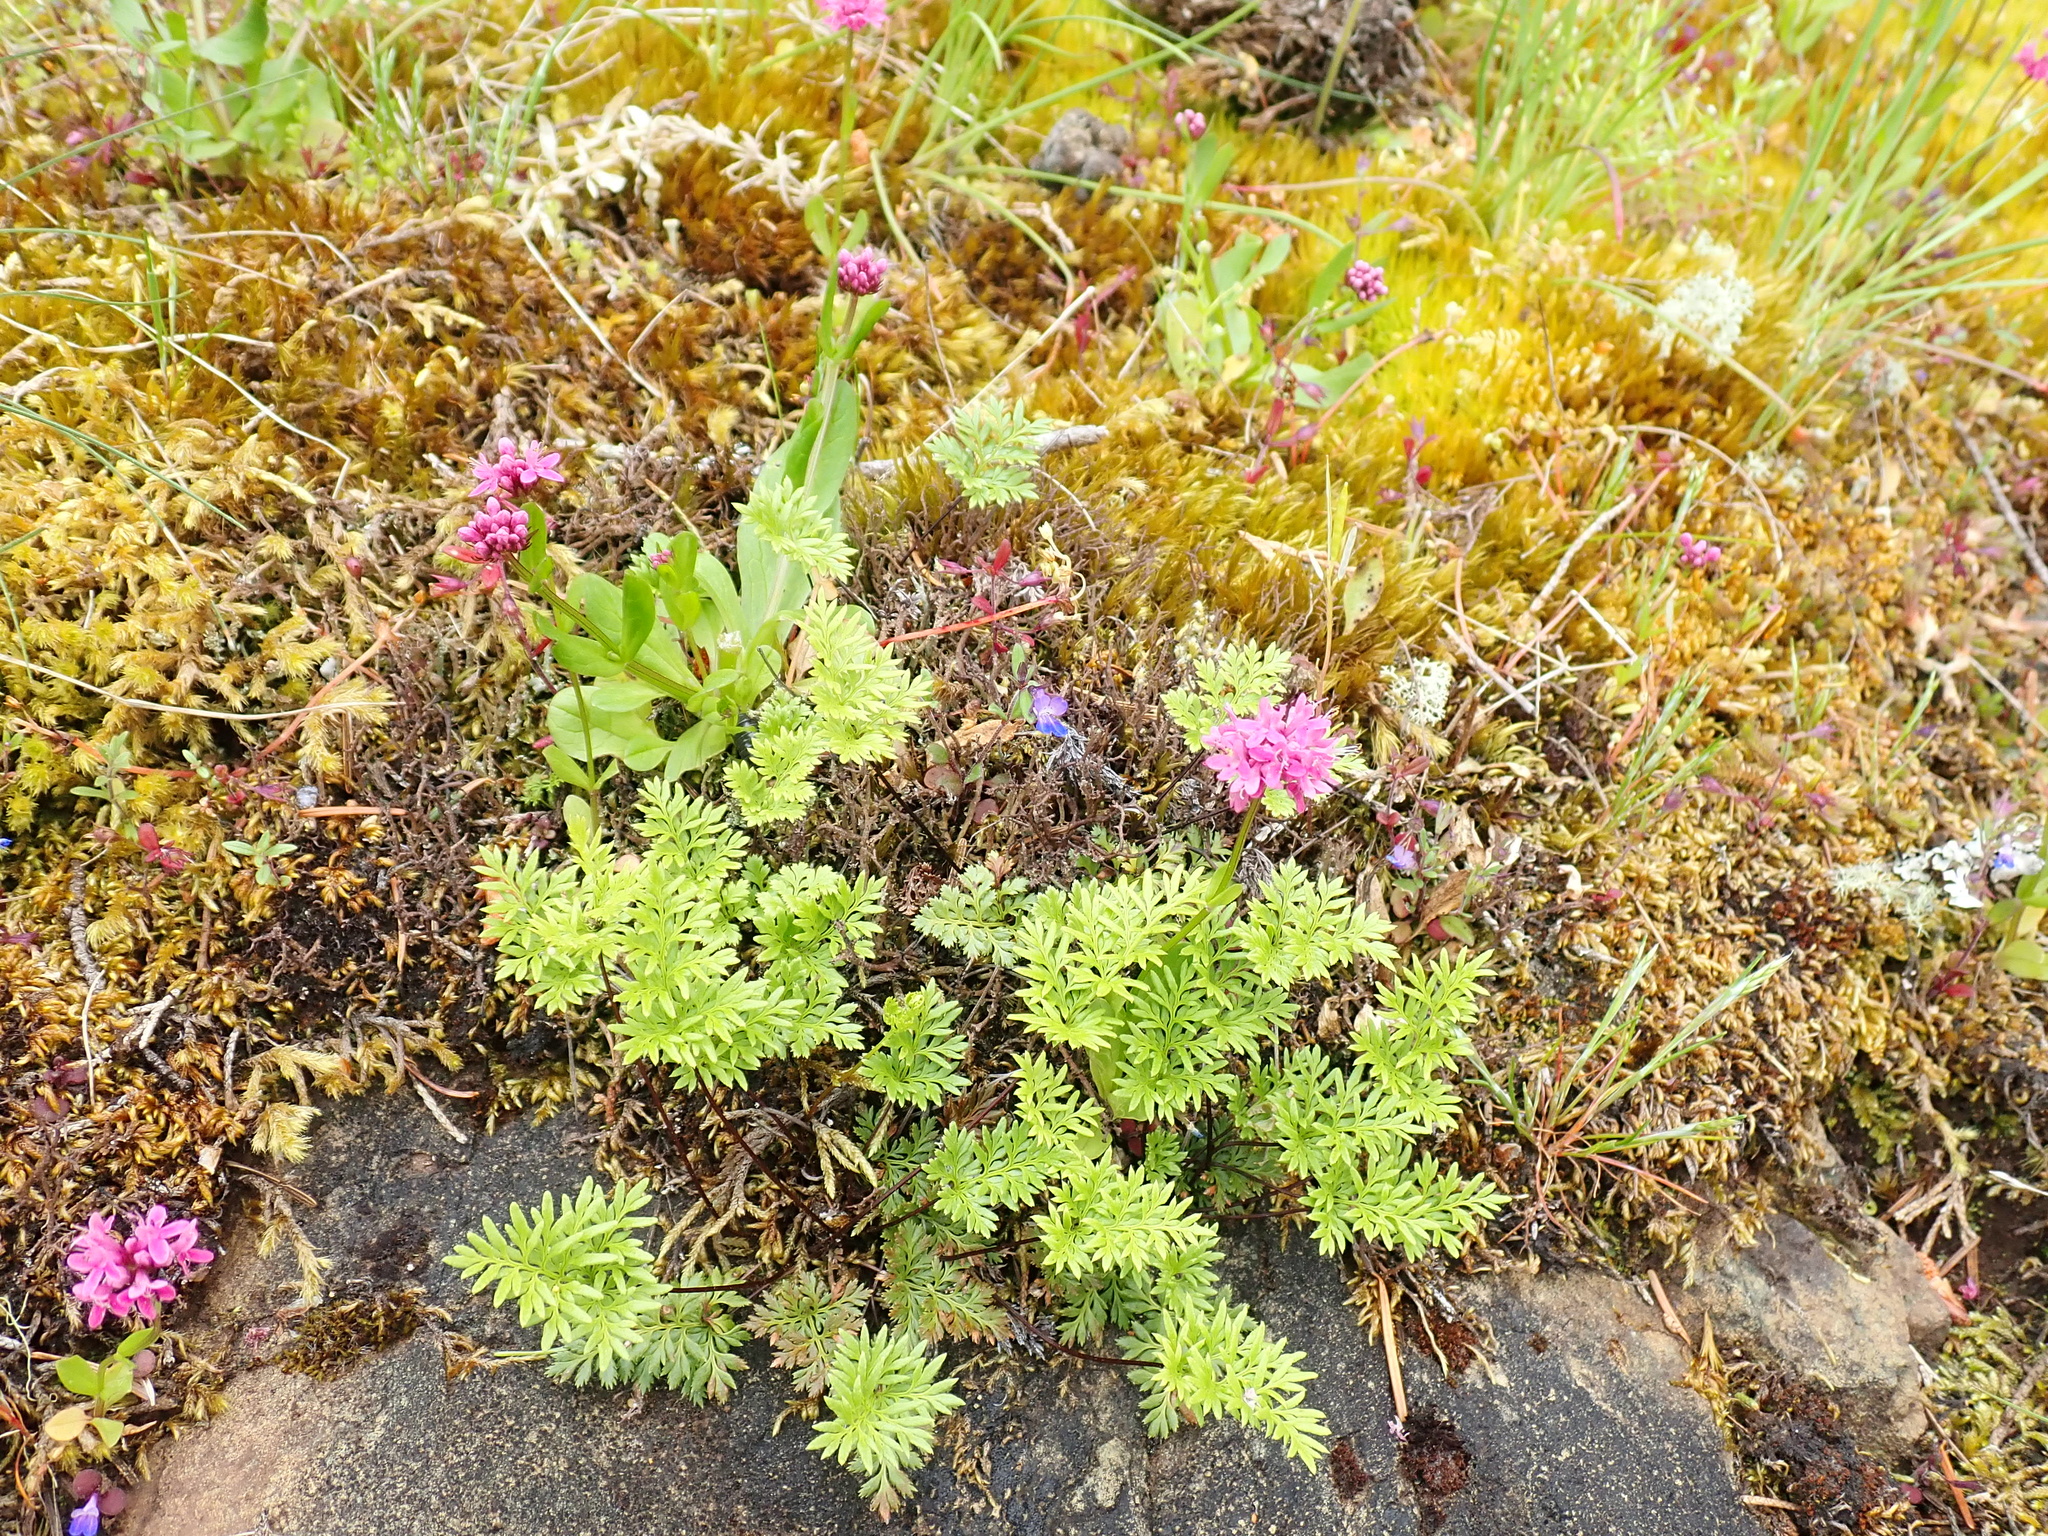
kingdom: Plantae
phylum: Tracheophyta
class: Polypodiopsida
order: Polypodiales
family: Pteridaceae
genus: Aspidotis
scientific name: Aspidotis densa
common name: Indian's dream
